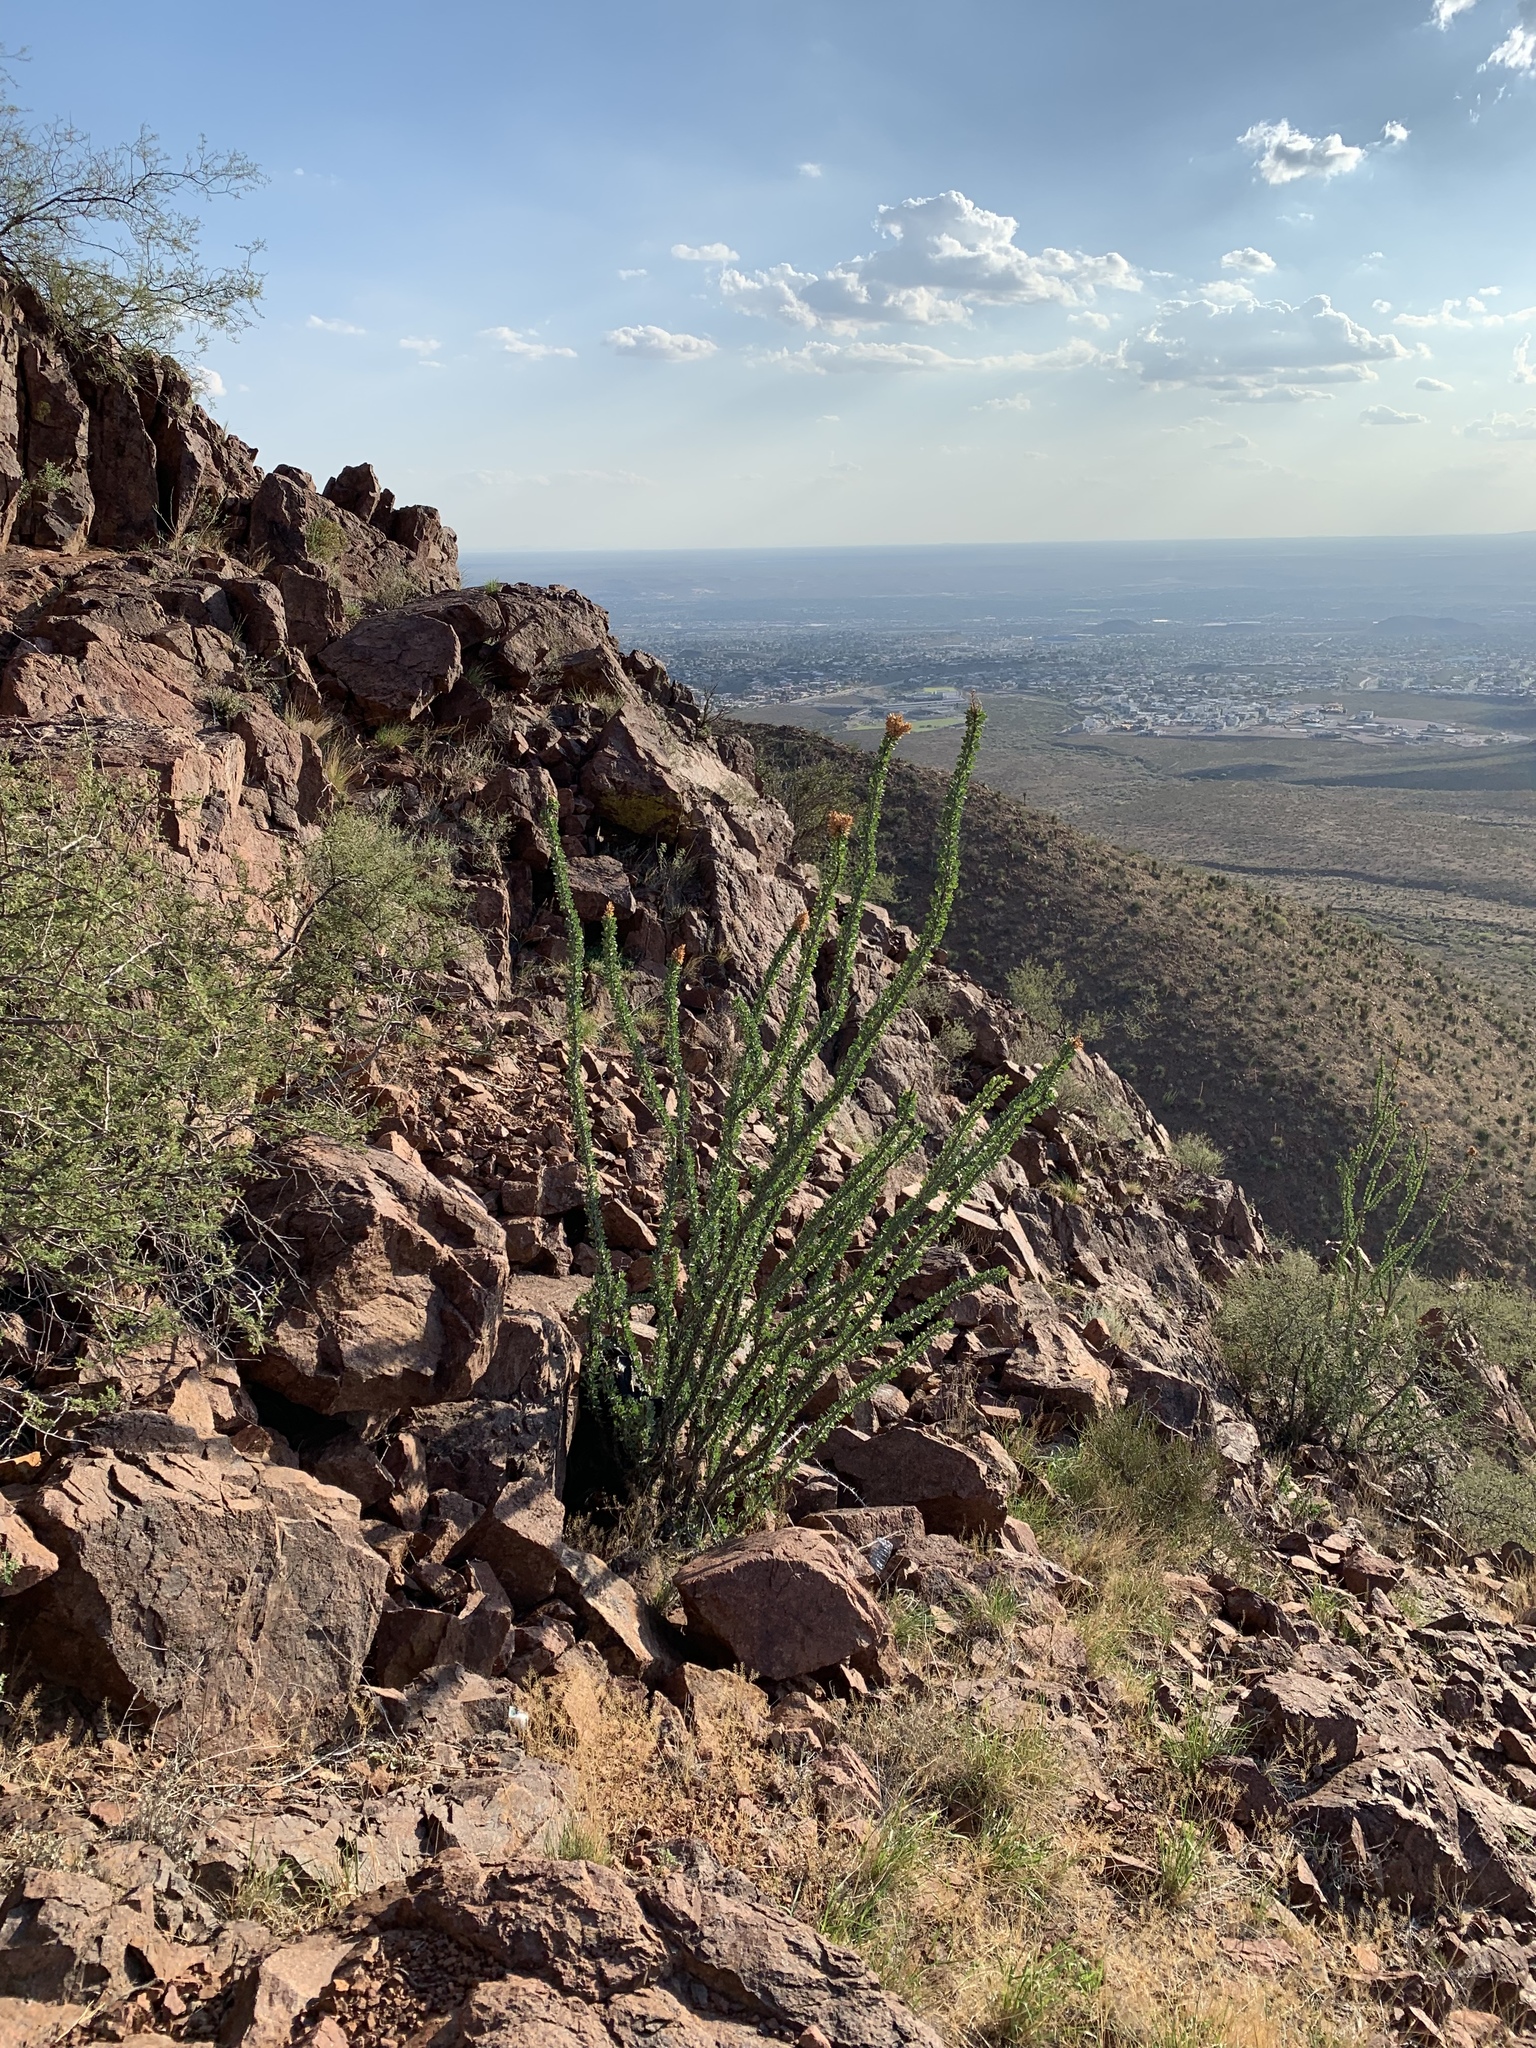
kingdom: Plantae
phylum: Tracheophyta
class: Magnoliopsida
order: Ericales
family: Fouquieriaceae
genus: Fouquieria
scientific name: Fouquieria splendens
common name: Vine-cactus
